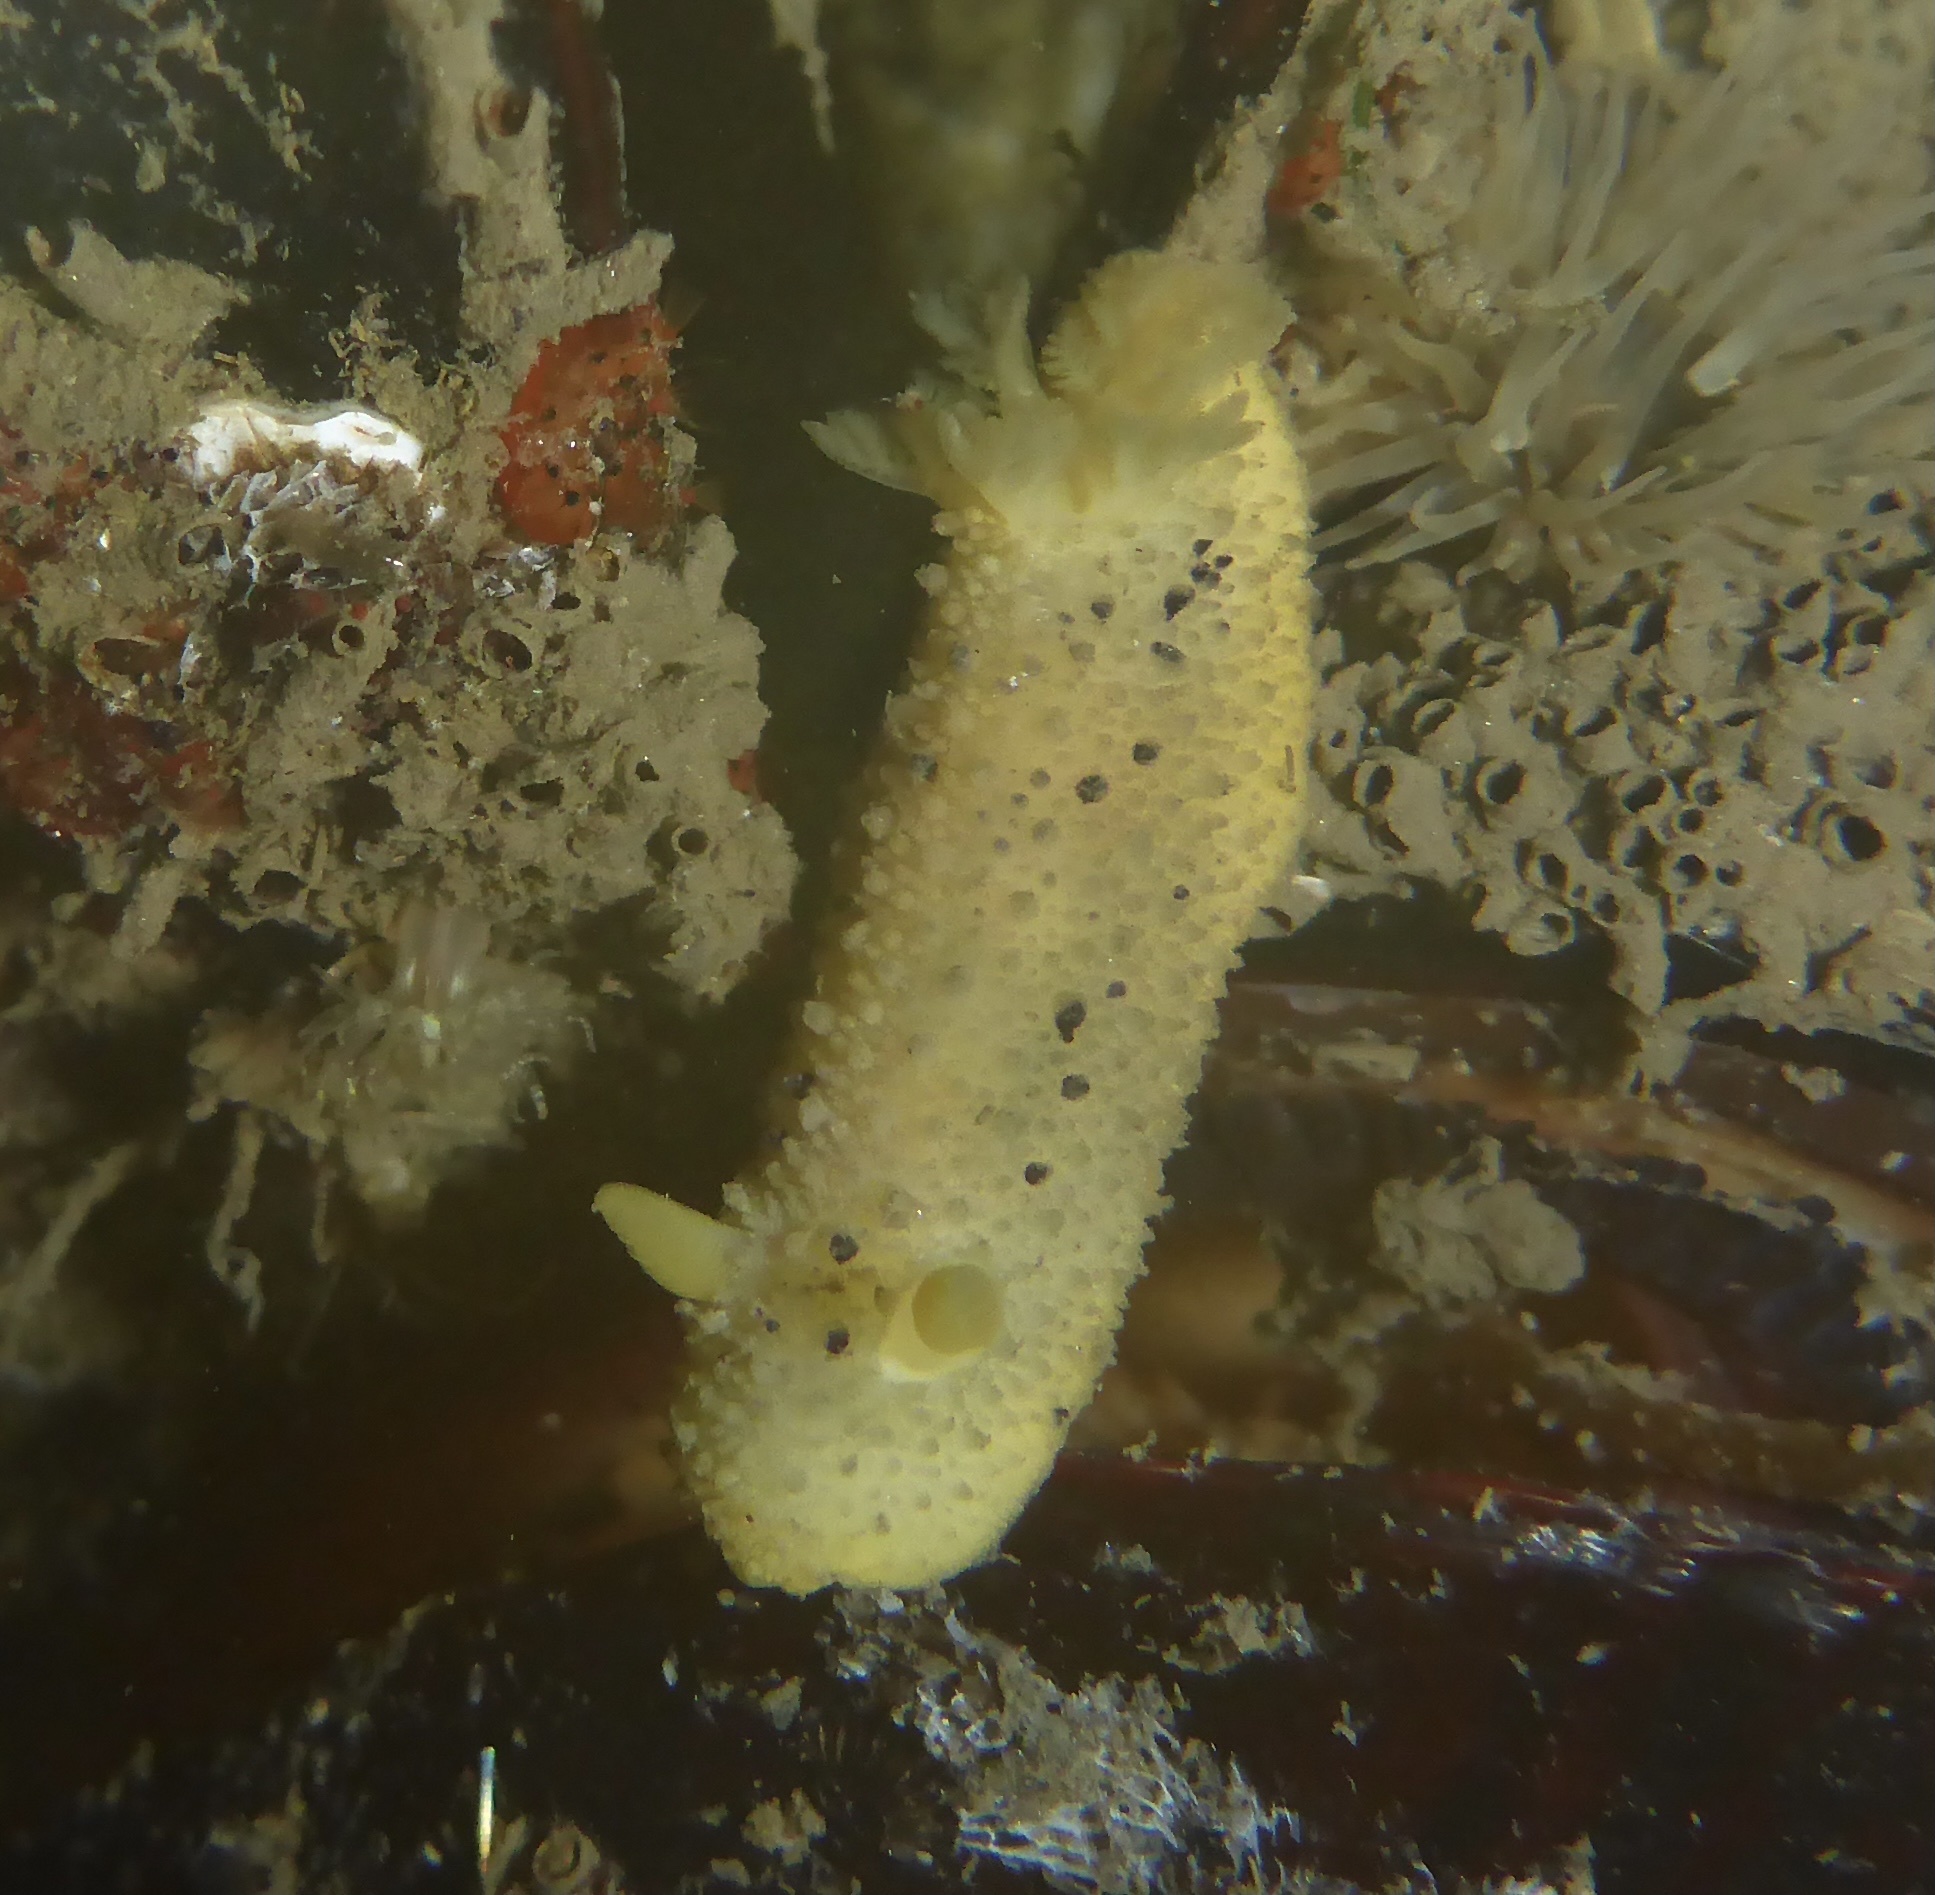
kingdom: Animalia
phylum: Mollusca
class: Gastropoda
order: Nudibranchia
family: Dorididae
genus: Doris
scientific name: Doris montereyensis
